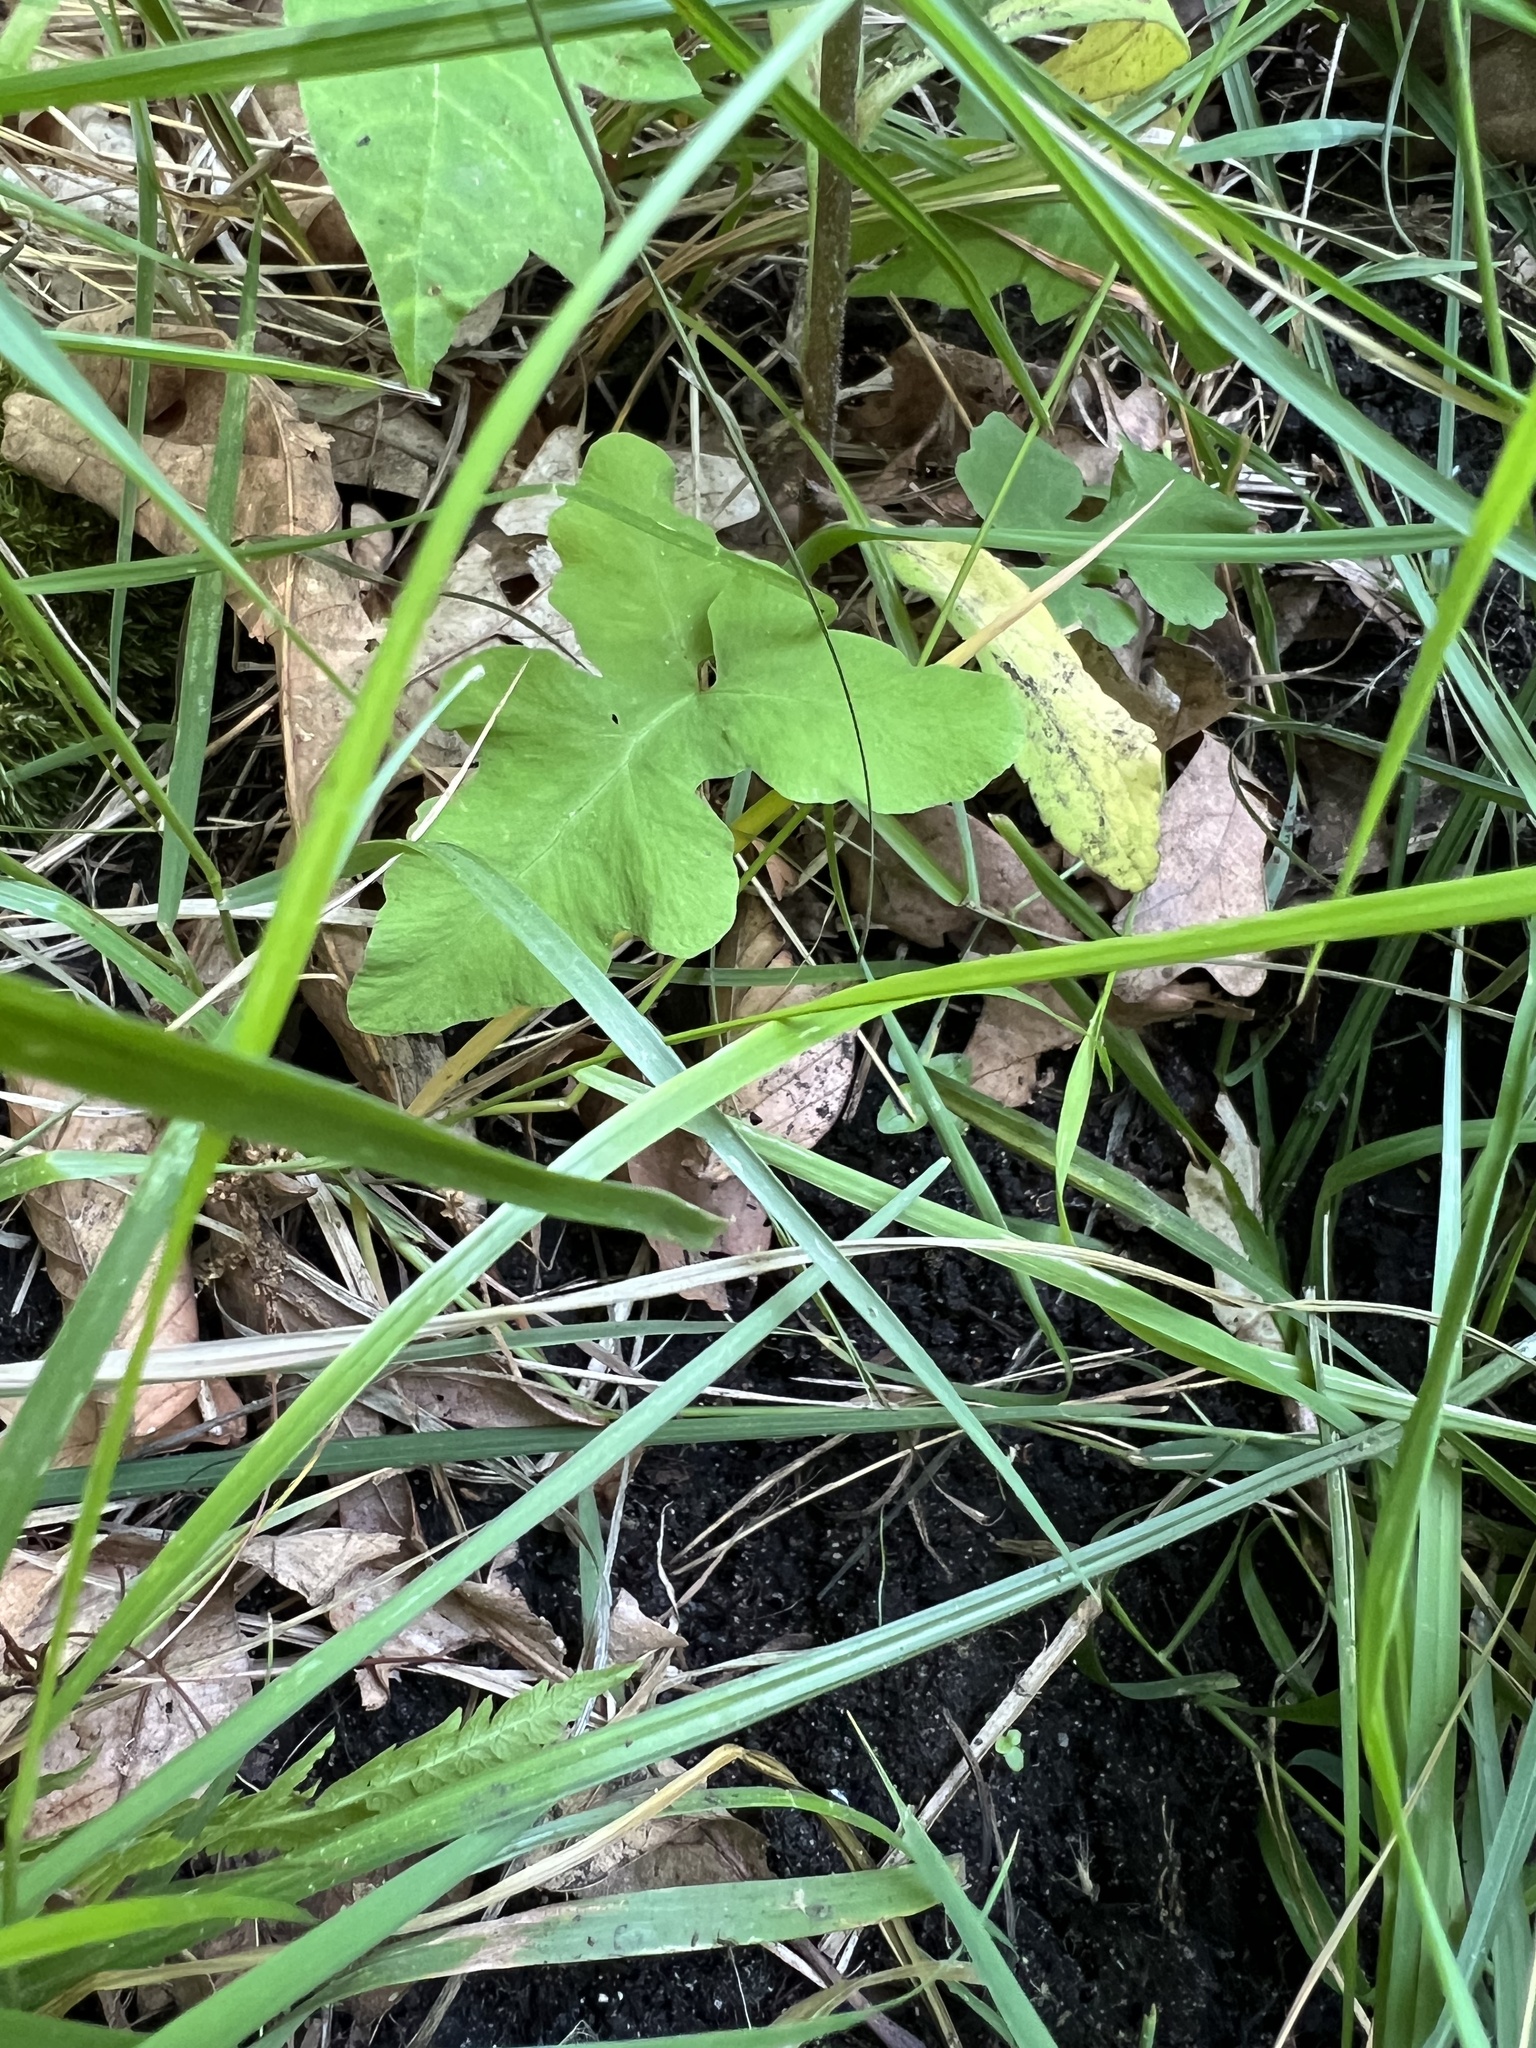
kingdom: Plantae
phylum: Tracheophyta
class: Polypodiopsida
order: Polypodiales
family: Onocleaceae
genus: Onoclea
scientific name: Onoclea sensibilis
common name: Sensitive fern
